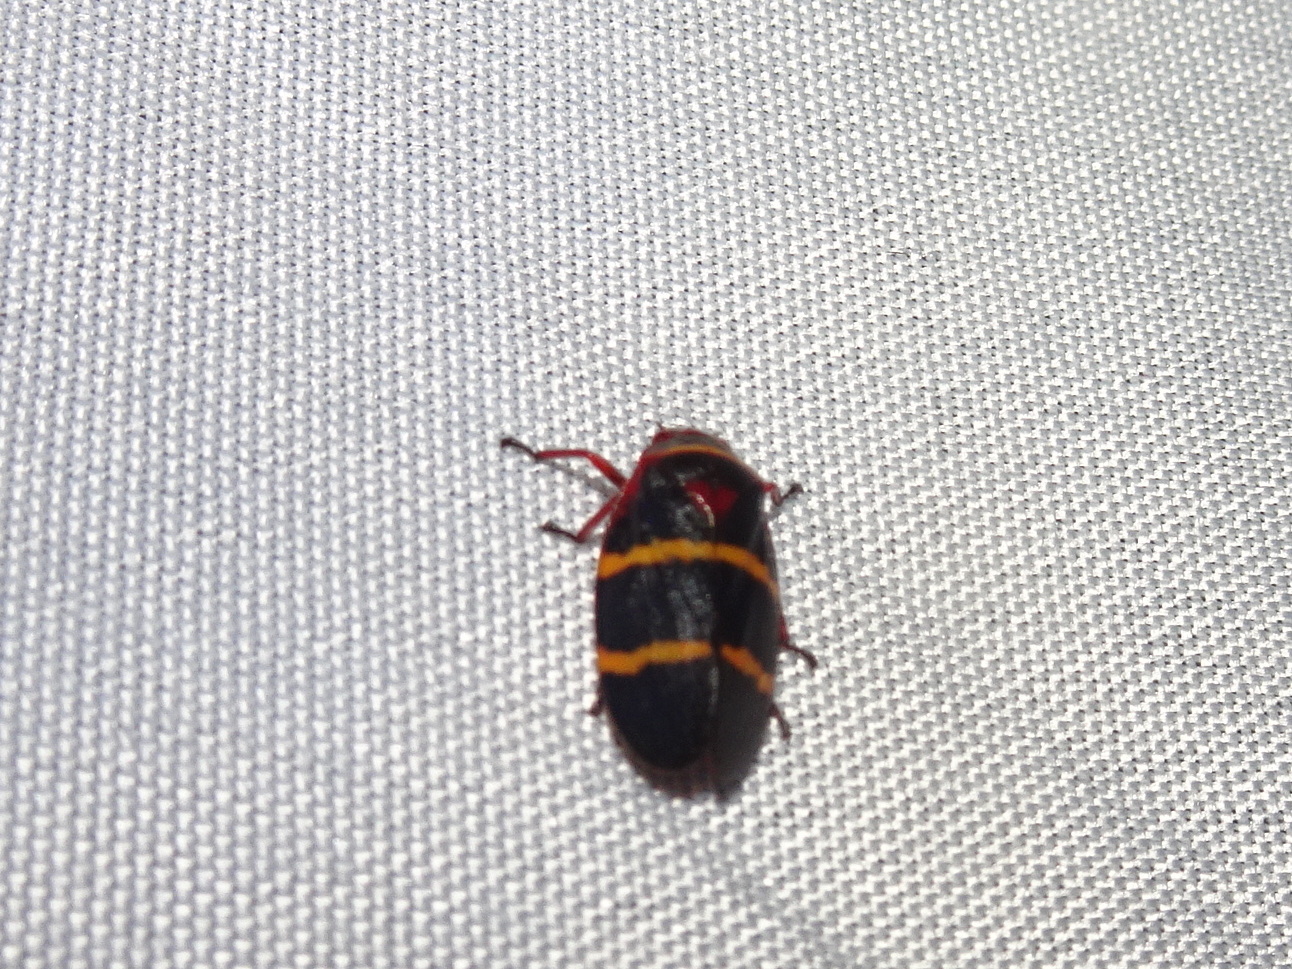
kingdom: Animalia
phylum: Arthropoda
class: Insecta
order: Hemiptera
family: Cercopidae
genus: Prosapia
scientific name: Prosapia bicincta
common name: Twolined spittlebug
